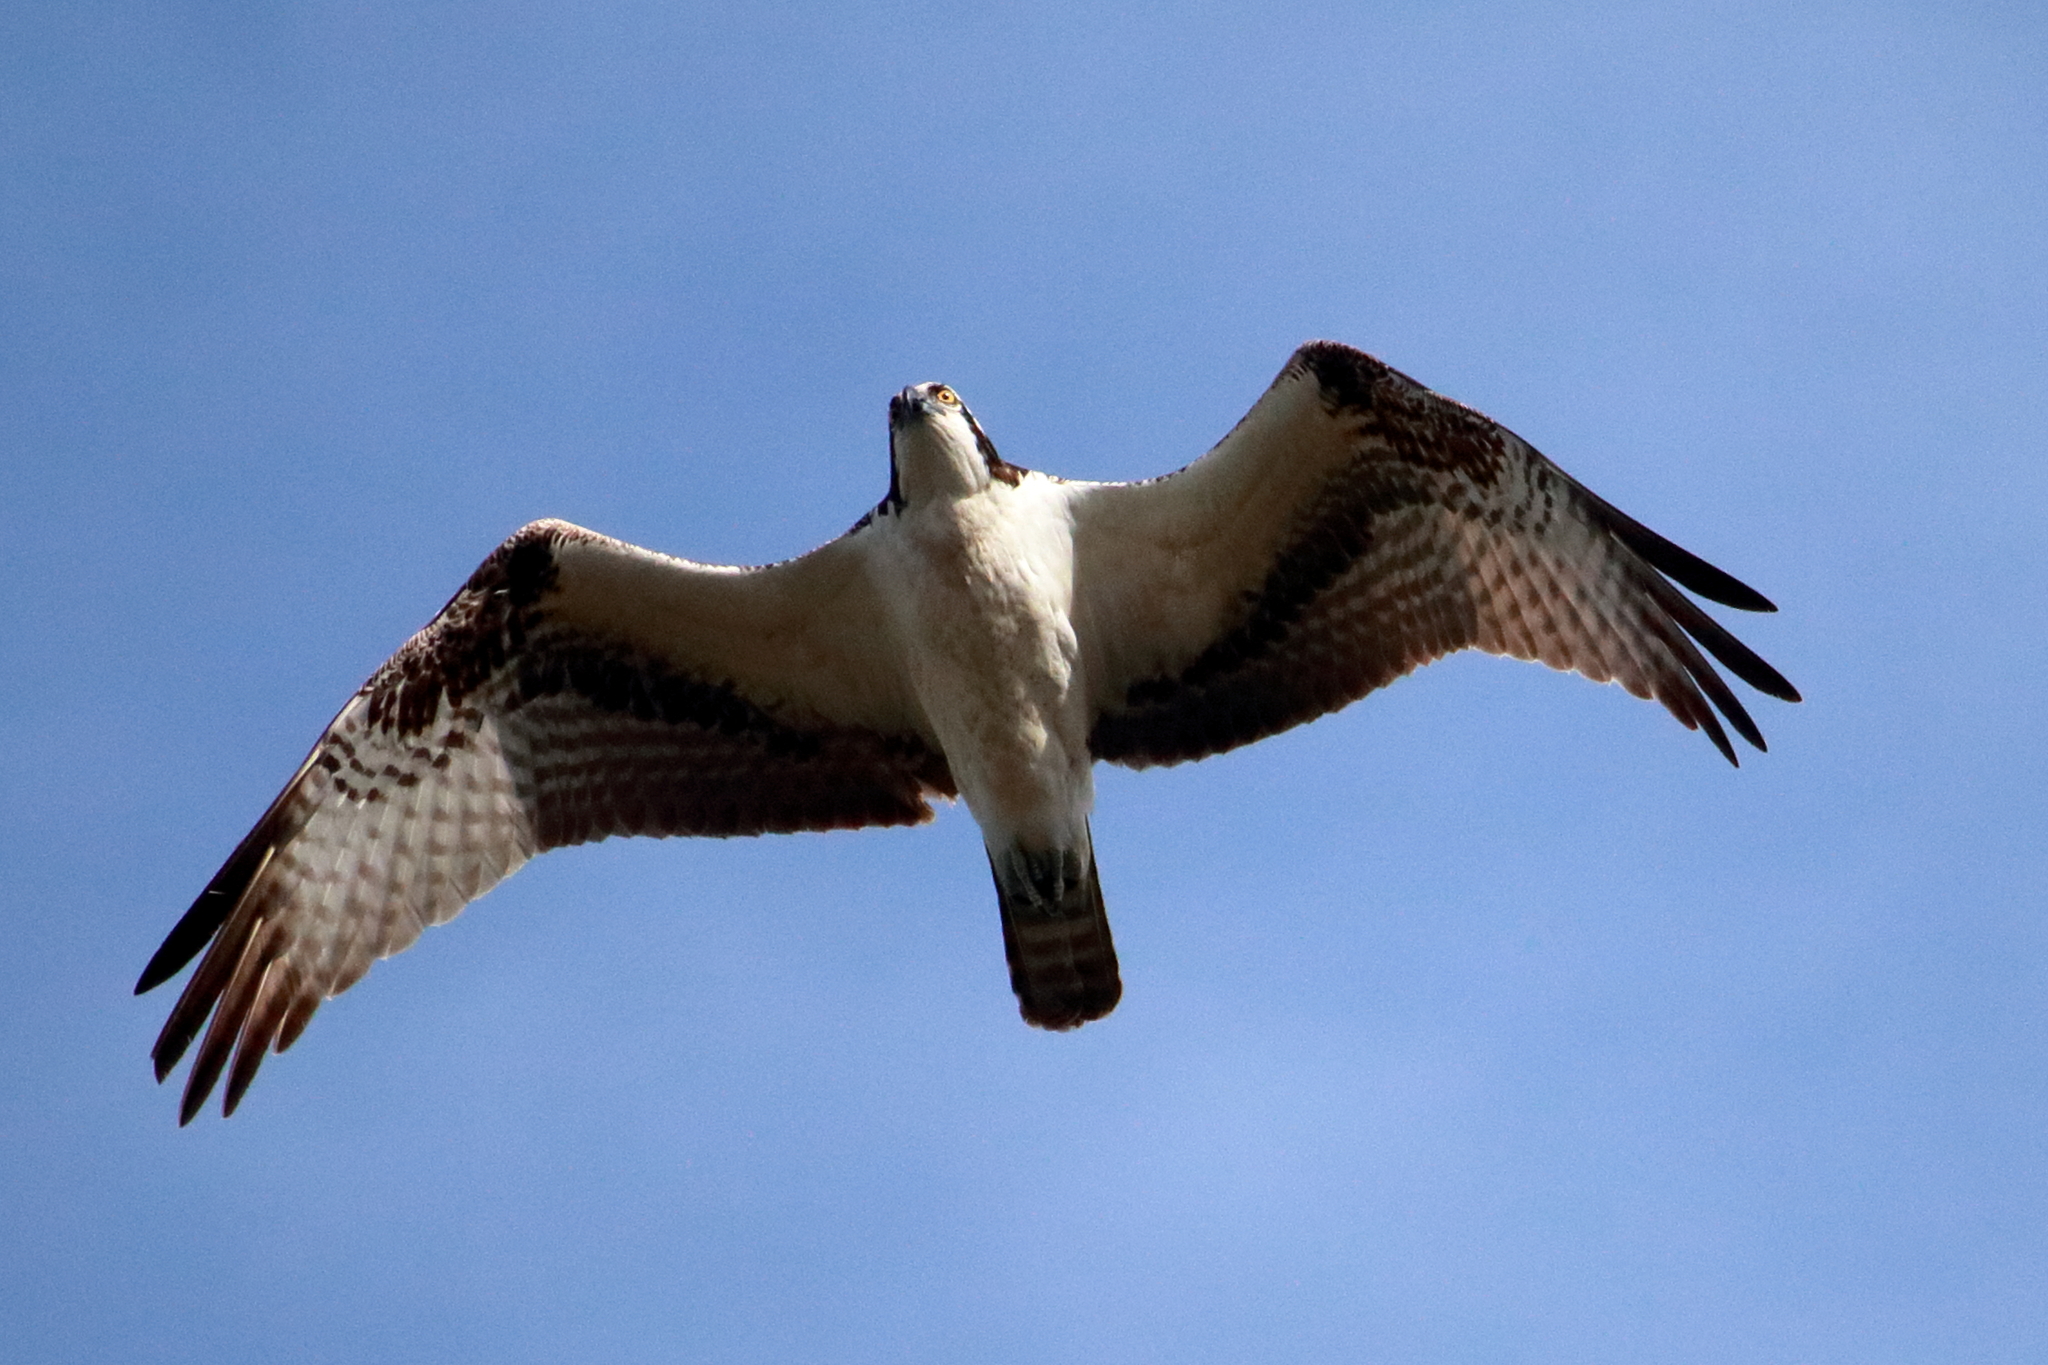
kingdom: Animalia
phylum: Chordata
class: Aves
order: Accipitriformes
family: Pandionidae
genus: Pandion
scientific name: Pandion haliaetus
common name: Osprey
